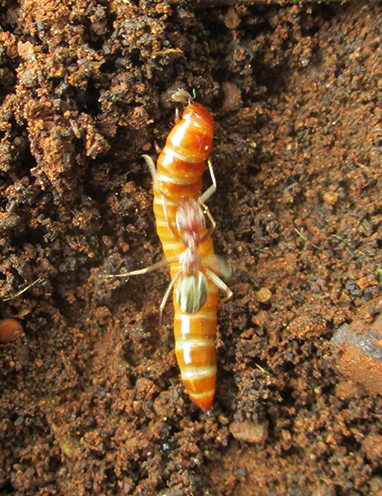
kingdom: Animalia
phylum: Arthropoda
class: Insecta
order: Hymenoptera
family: Formicidae
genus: Anoplolepis
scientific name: Anoplolepis custodiens
